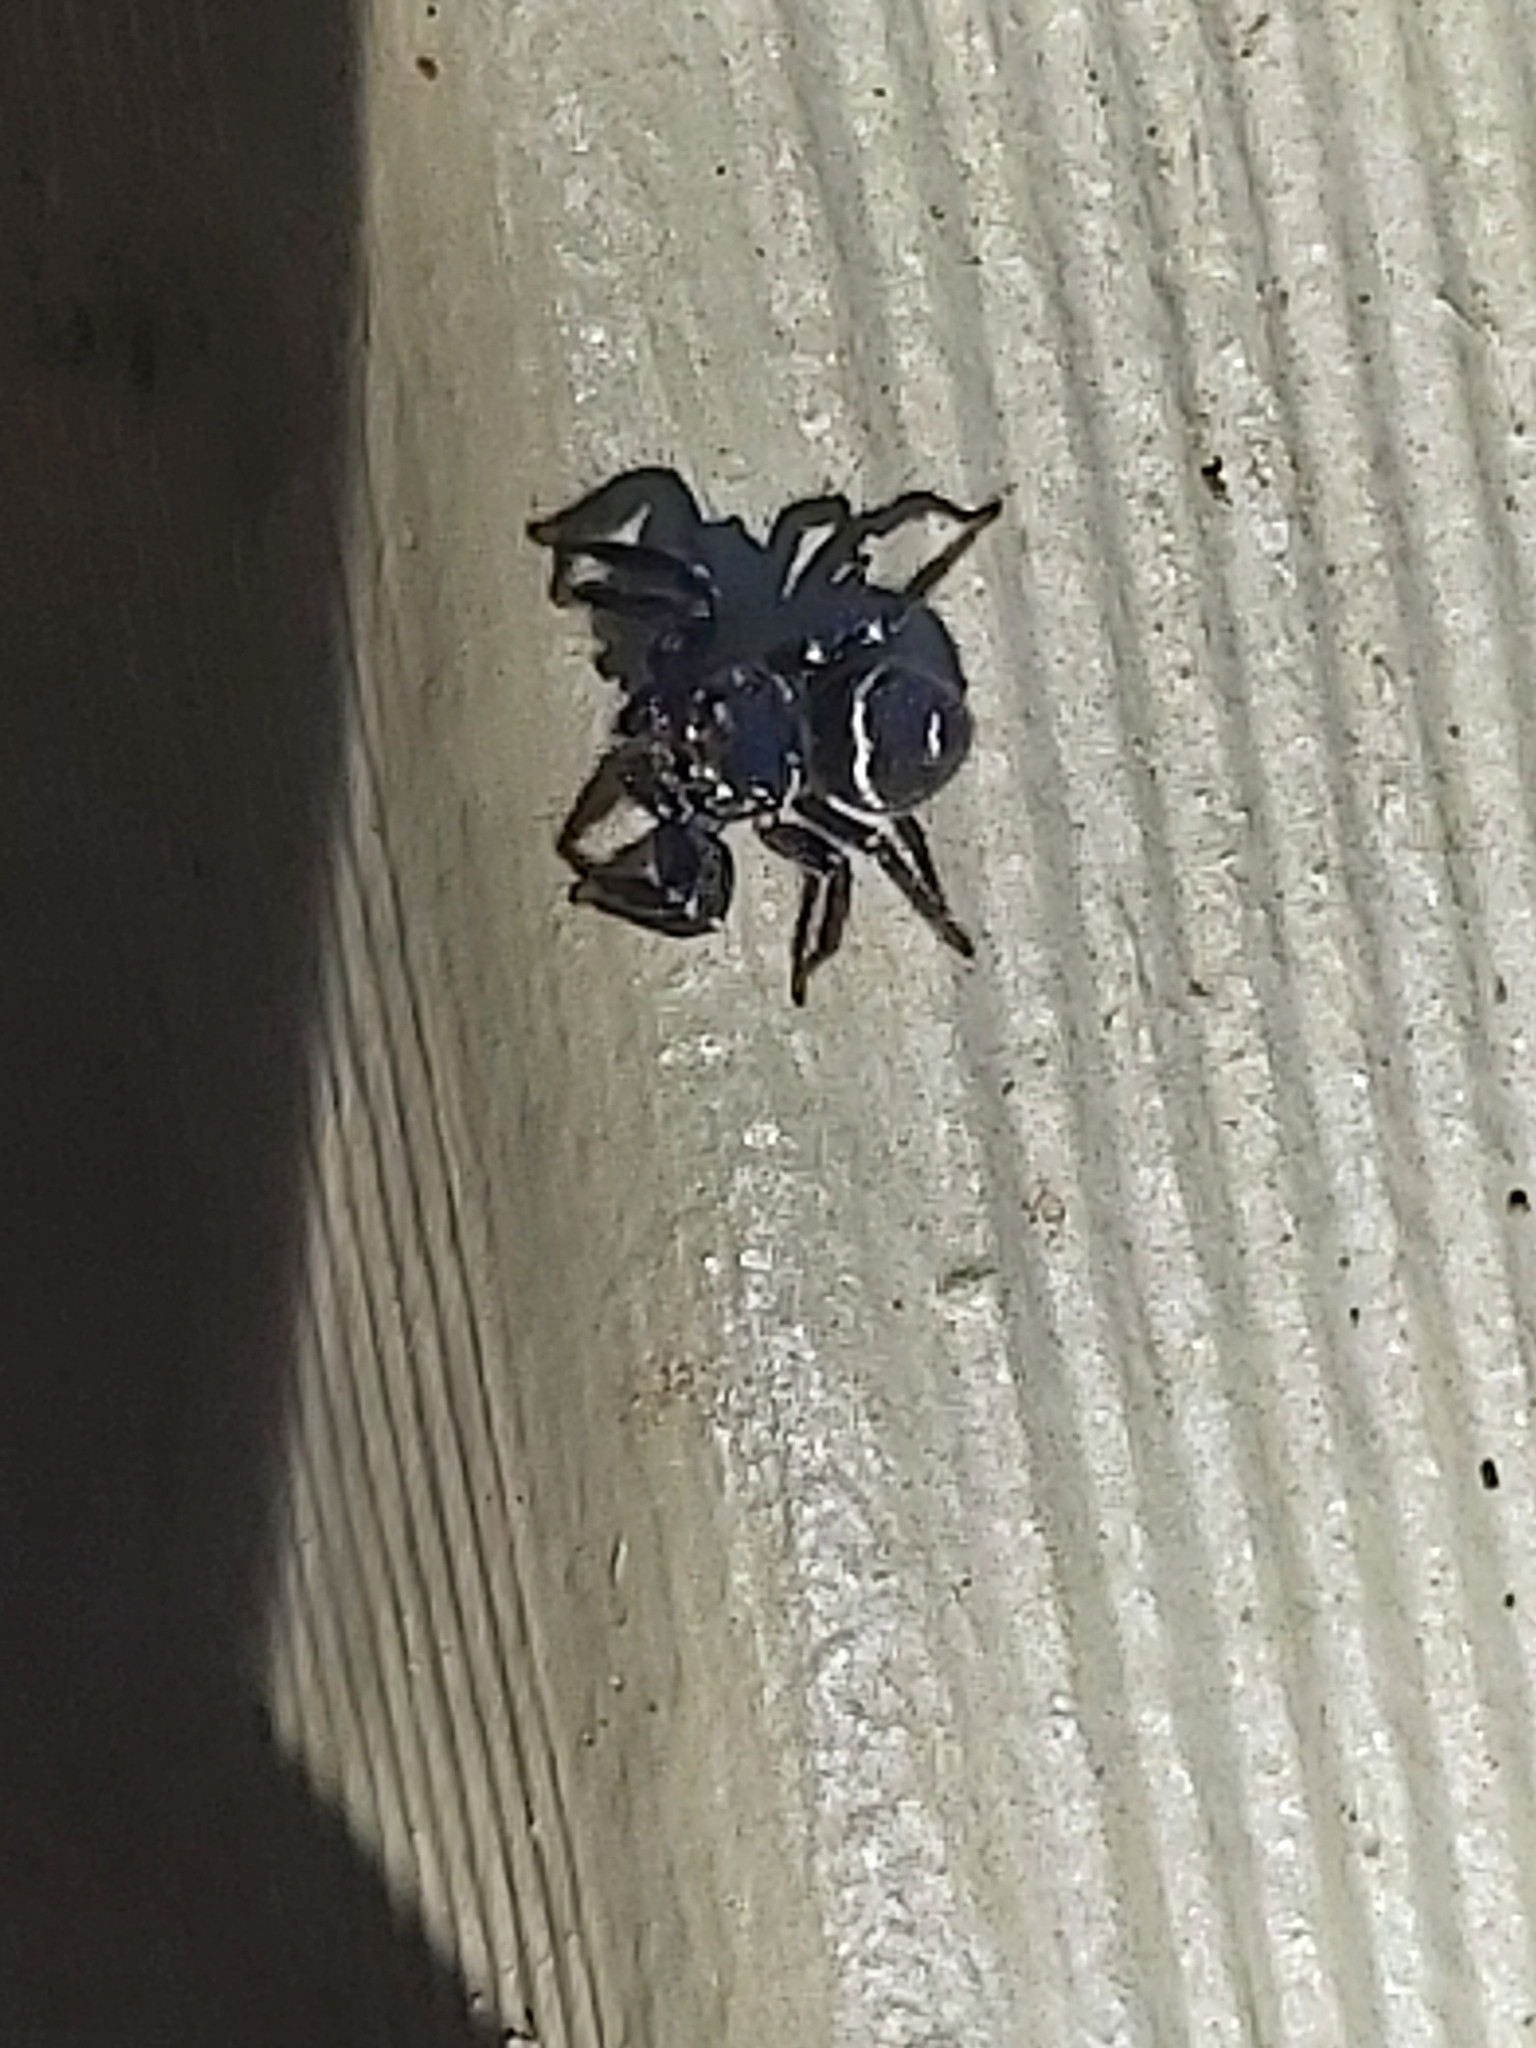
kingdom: Animalia
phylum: Arthropoda
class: Arachnida
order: Araneae
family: Salticidae
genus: Zenodorus
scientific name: Zenodorus orbiculatus
